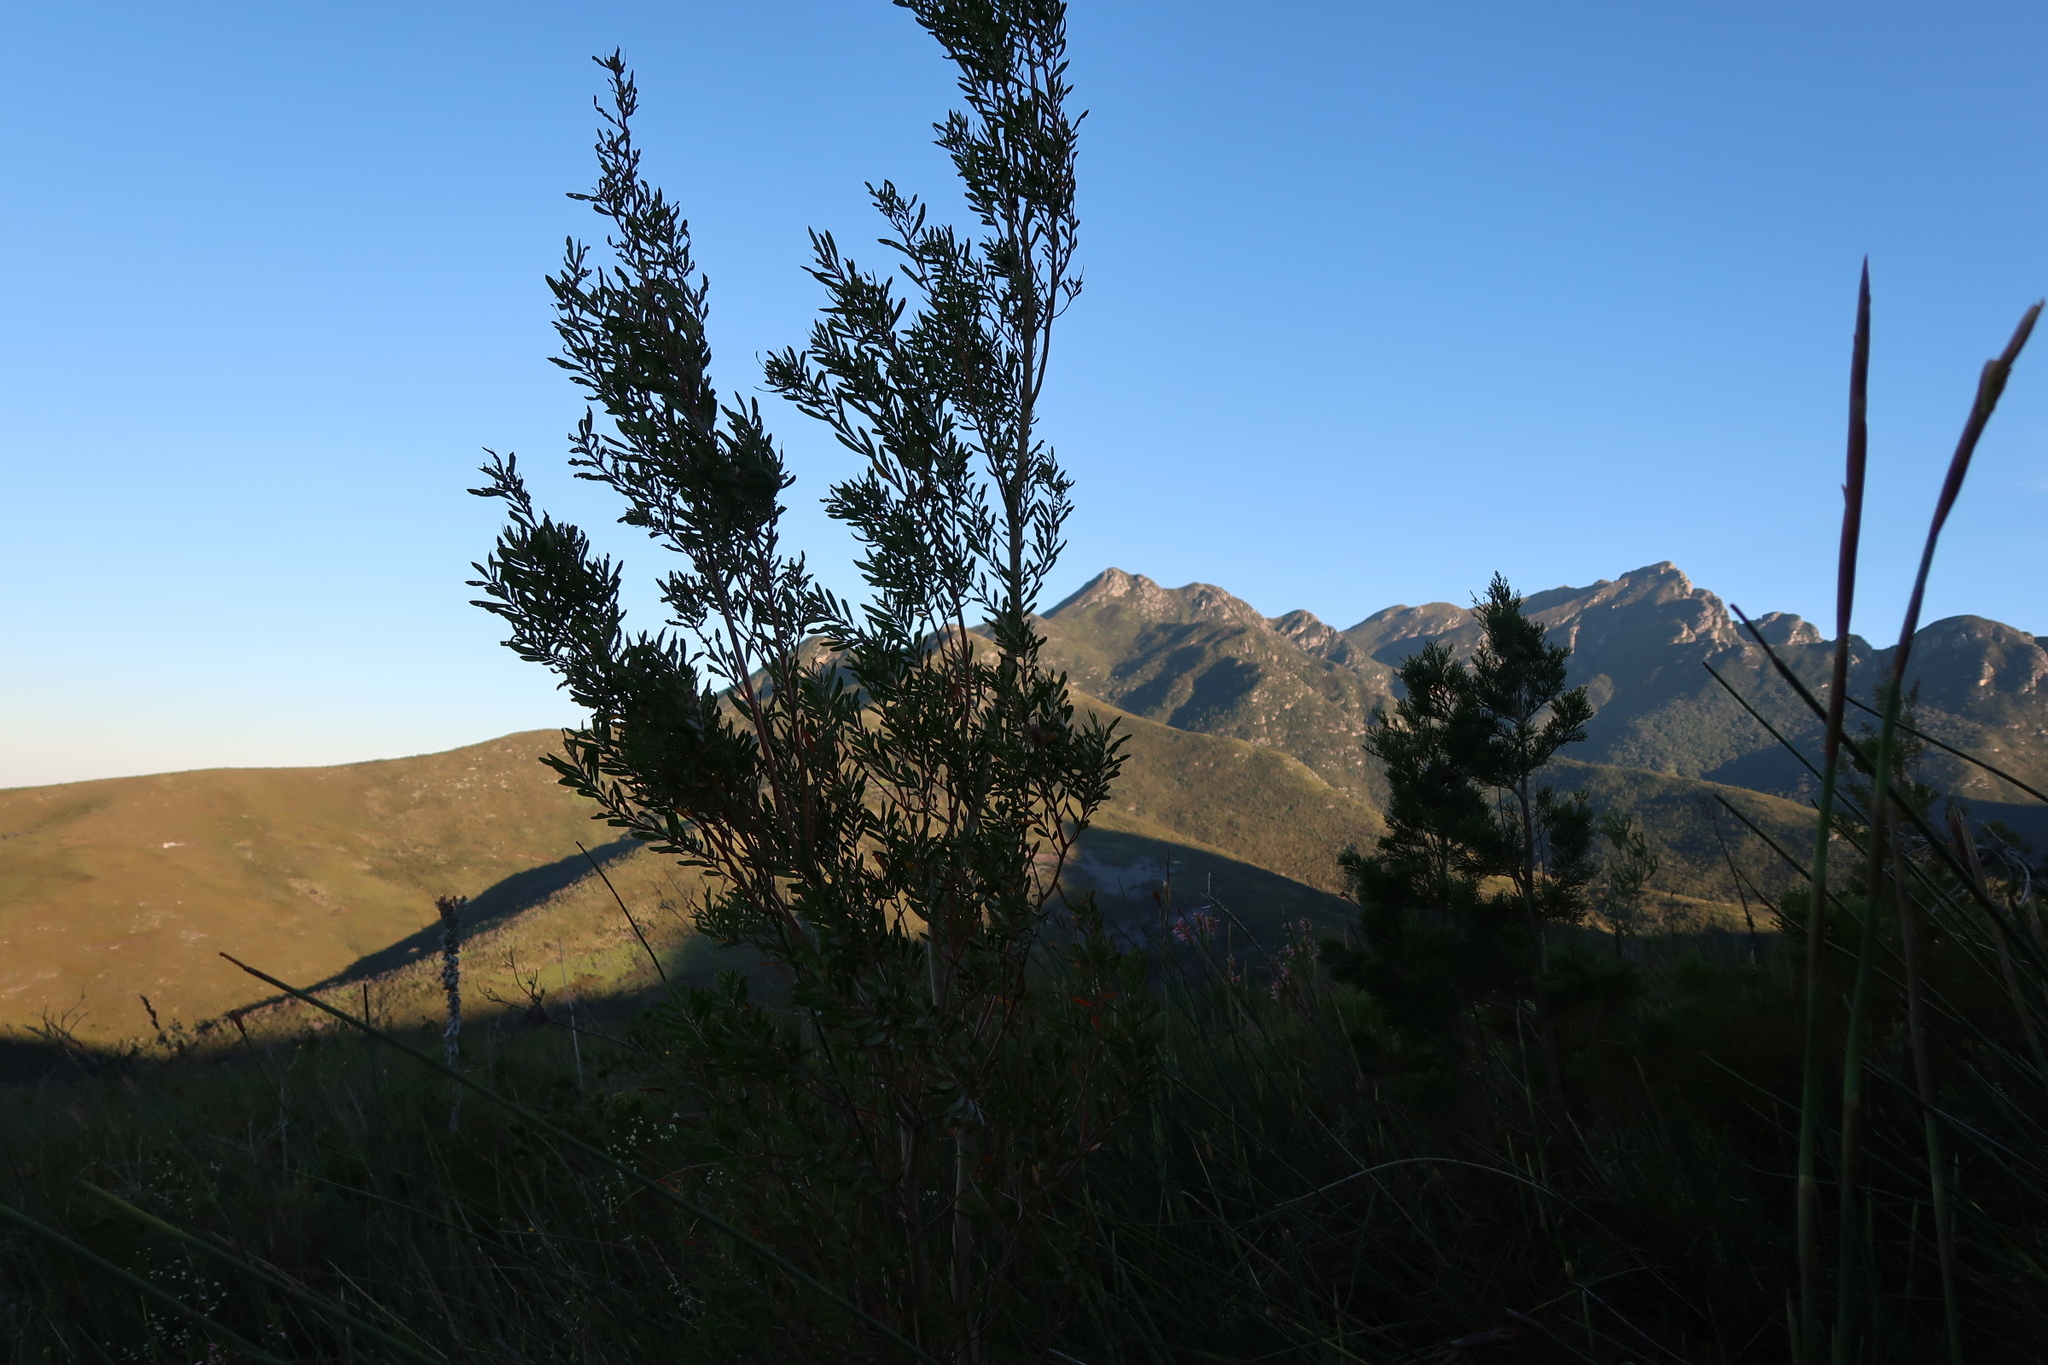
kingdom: Plantae
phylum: Tracheophyta
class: Magnoliopsida
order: Proteales
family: Proteaceae
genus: Leucadendron
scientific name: Leucadendron conicum
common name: Garden route conebush
